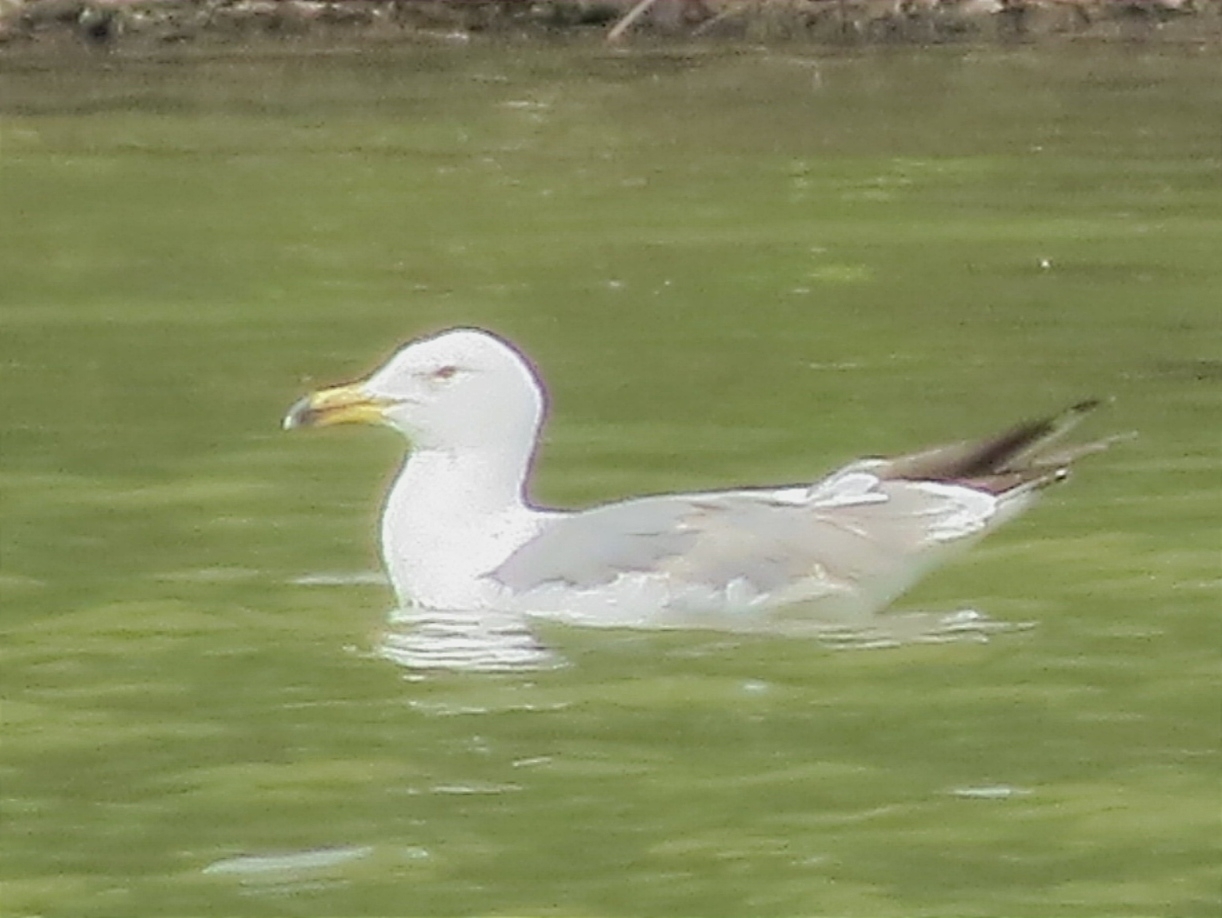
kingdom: Animalia
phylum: Chordata
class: Aves
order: Charadriiformes
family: Laridae
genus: Larus
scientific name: Larus fuscus
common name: Lesser black-backed gull
